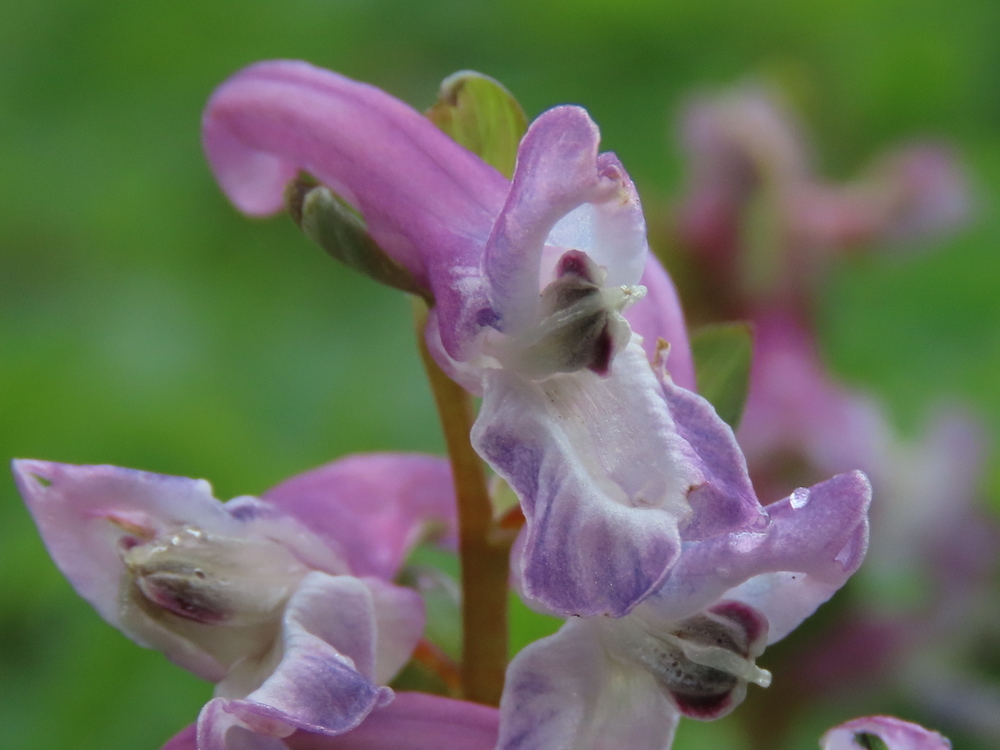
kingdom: Plantae
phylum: Tracheophyta
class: Magnoliopsida
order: Ranunculales
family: Papaveraceae
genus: Corydalis
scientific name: Corydalis cava
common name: Hollowroot
